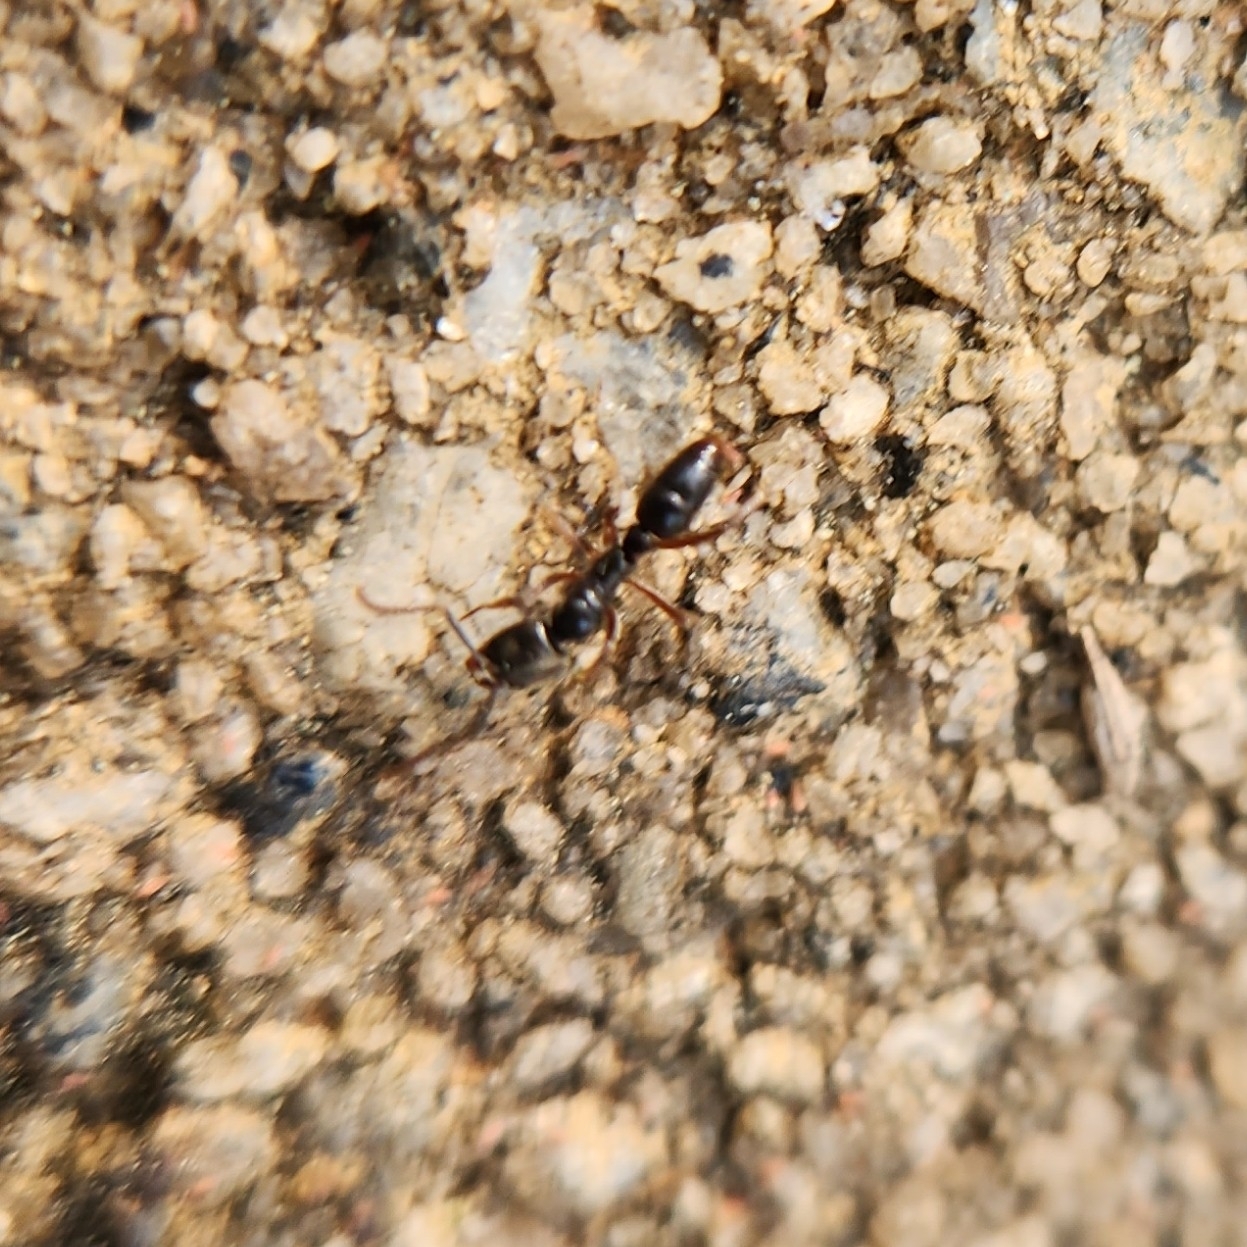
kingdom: Animalia
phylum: Arthropoda
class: Insecta
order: Hymenoptera
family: Formicidae
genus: Pachycondyla
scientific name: Pachycondyla chinensis
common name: Asian needle ant
